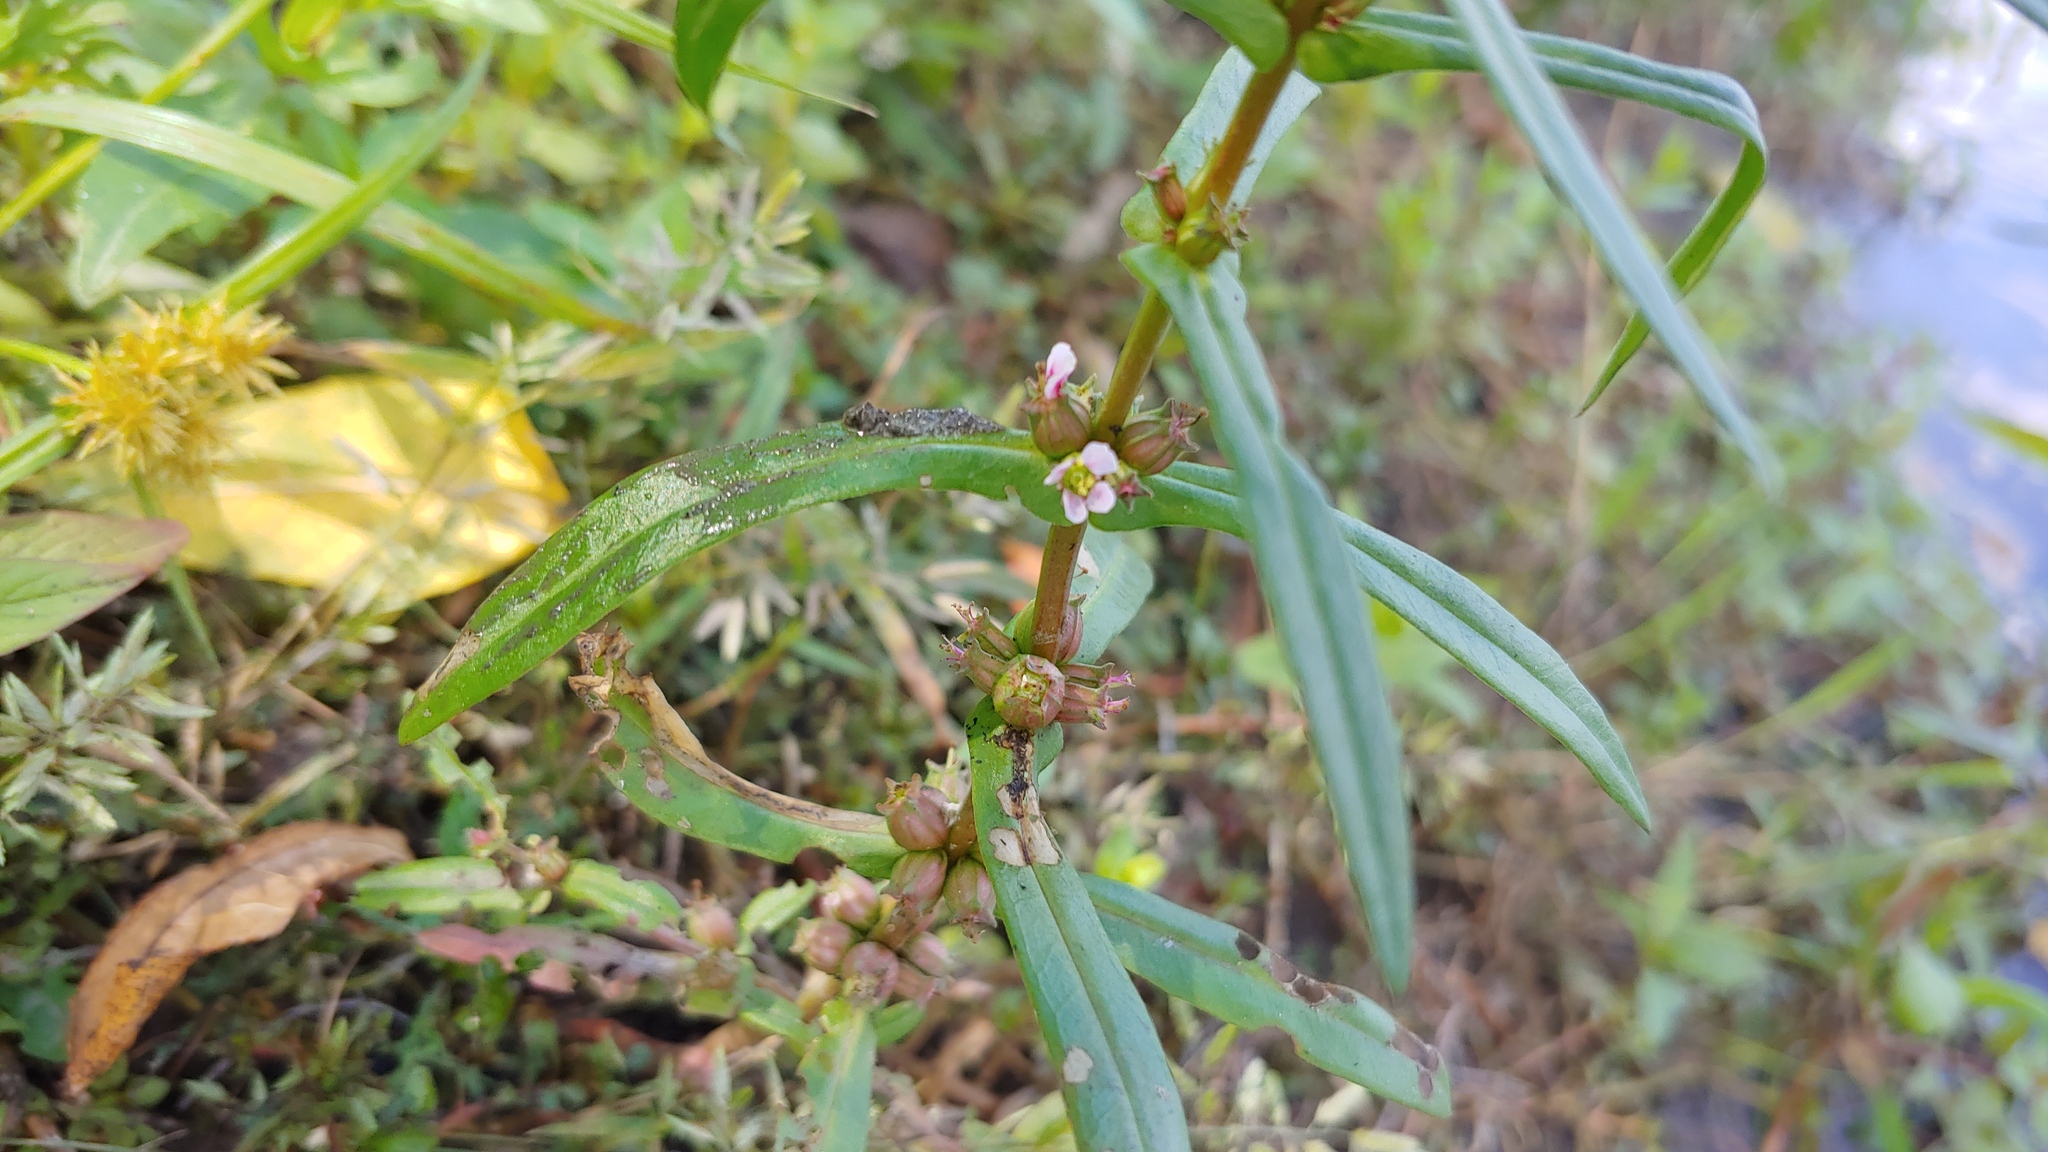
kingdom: Plantae
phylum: Tracheophyta
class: Magnoliopsida
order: Myrtales
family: Lythraceae
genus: Ammannia
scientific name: Ammannia robusta
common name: Grand ammannia
